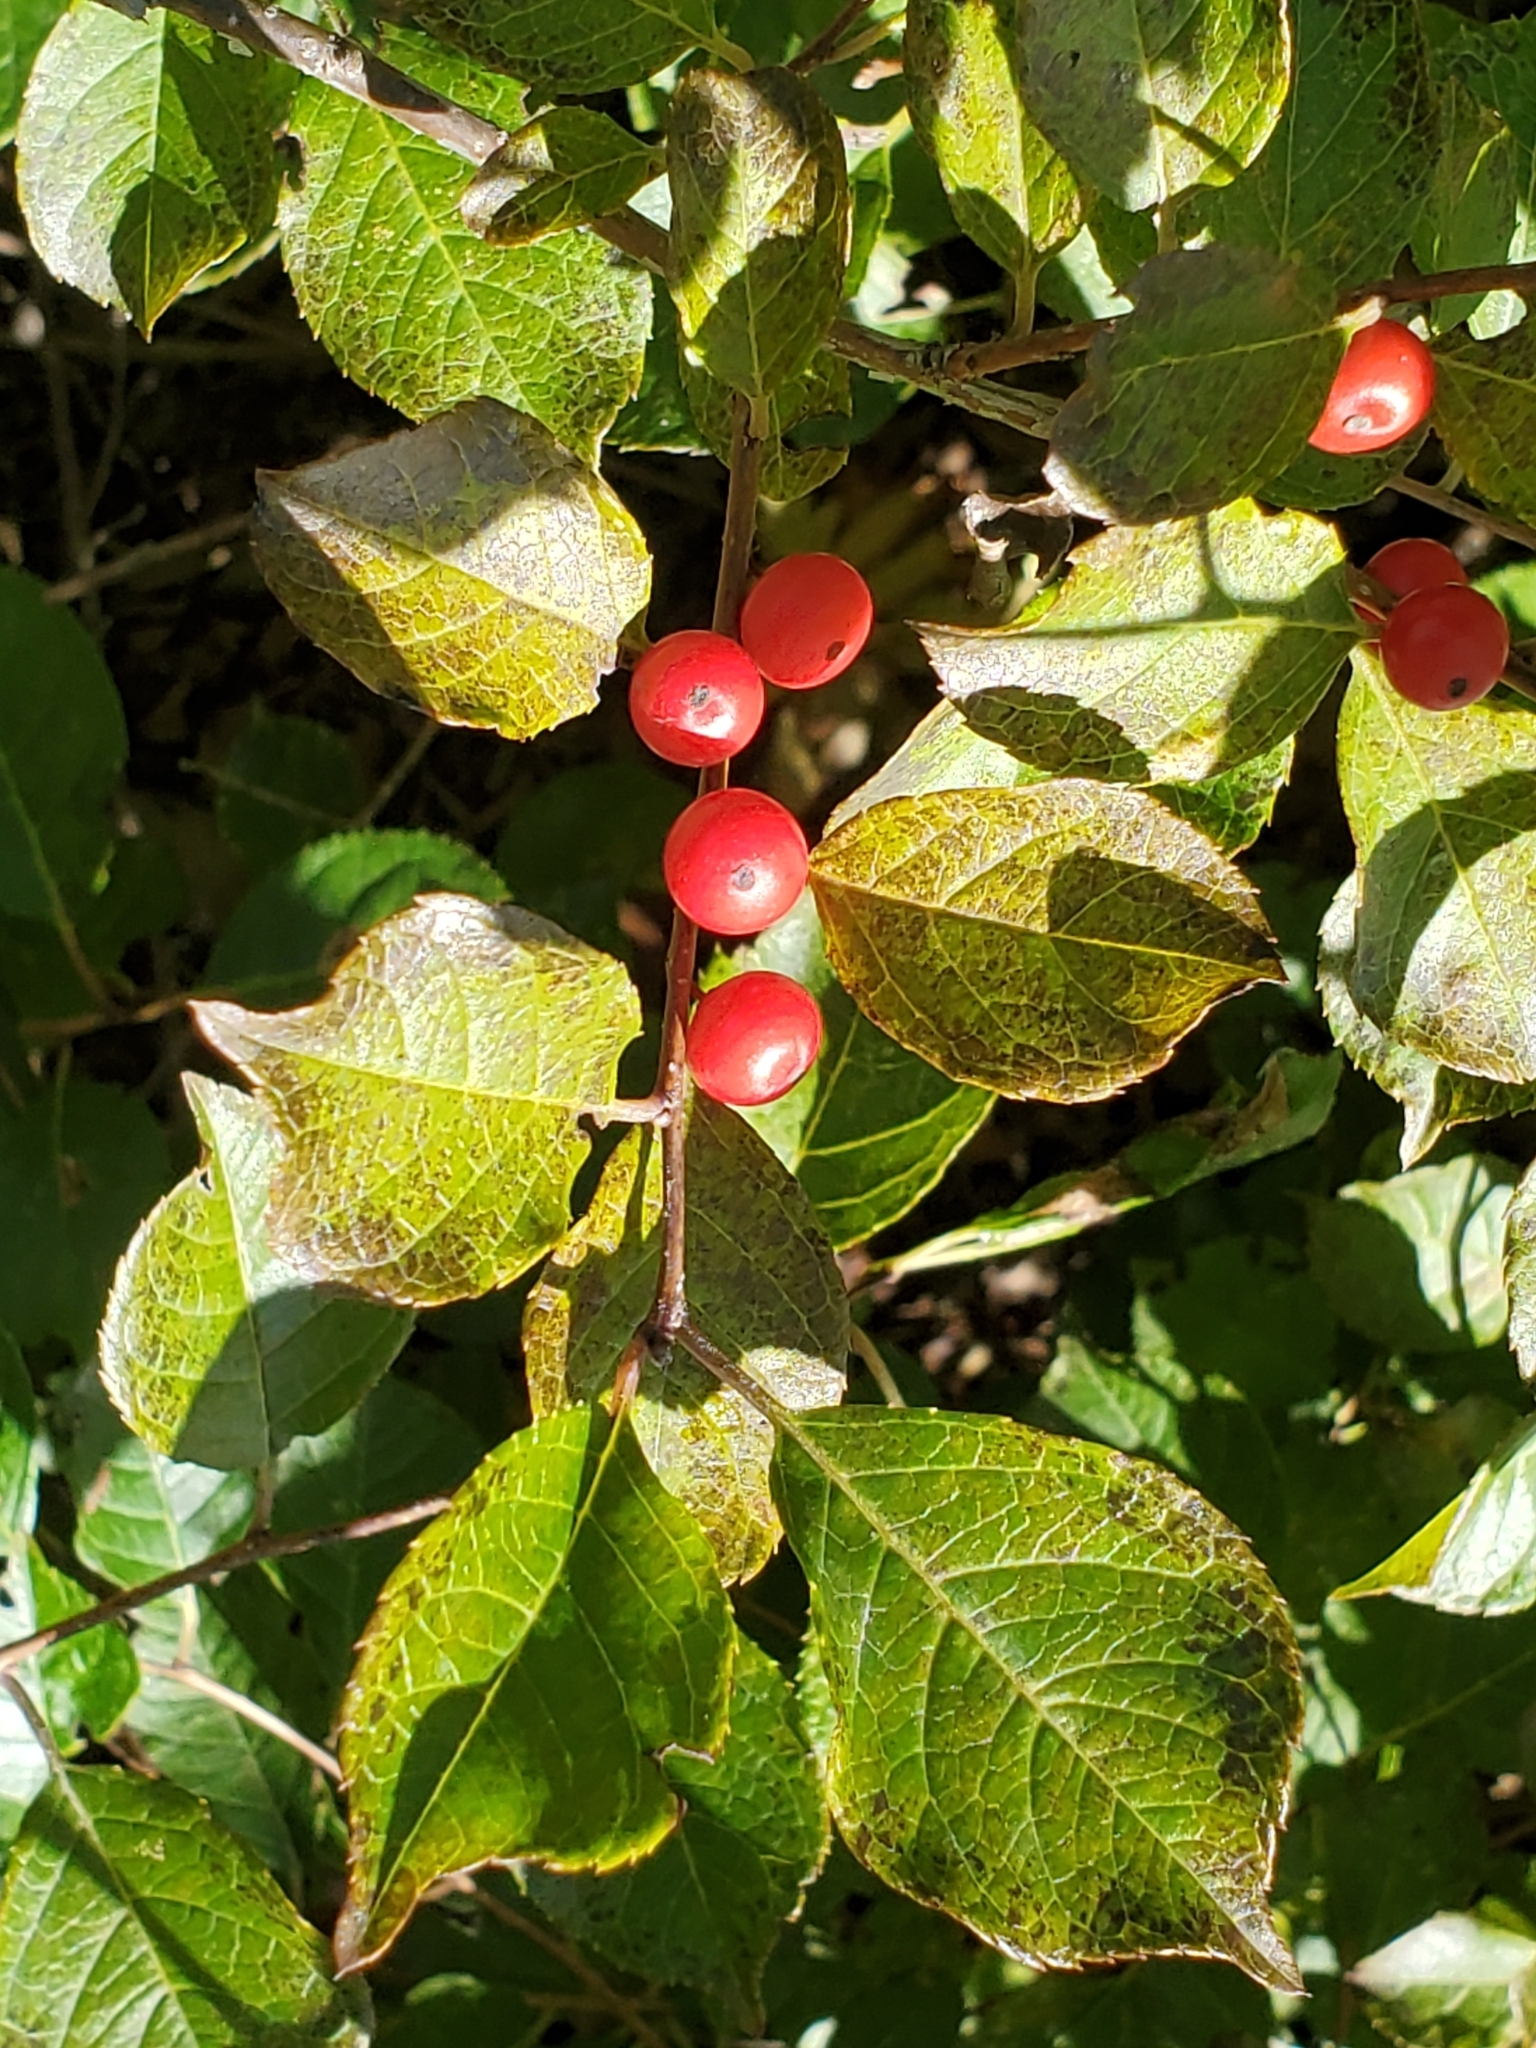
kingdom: Plantae
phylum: Tracheophyta
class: Magnoliopsida
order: Aquifoliales
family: Aquifoliaceae
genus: Ilex
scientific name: Ilex verticillata
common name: Virginia winterberry
